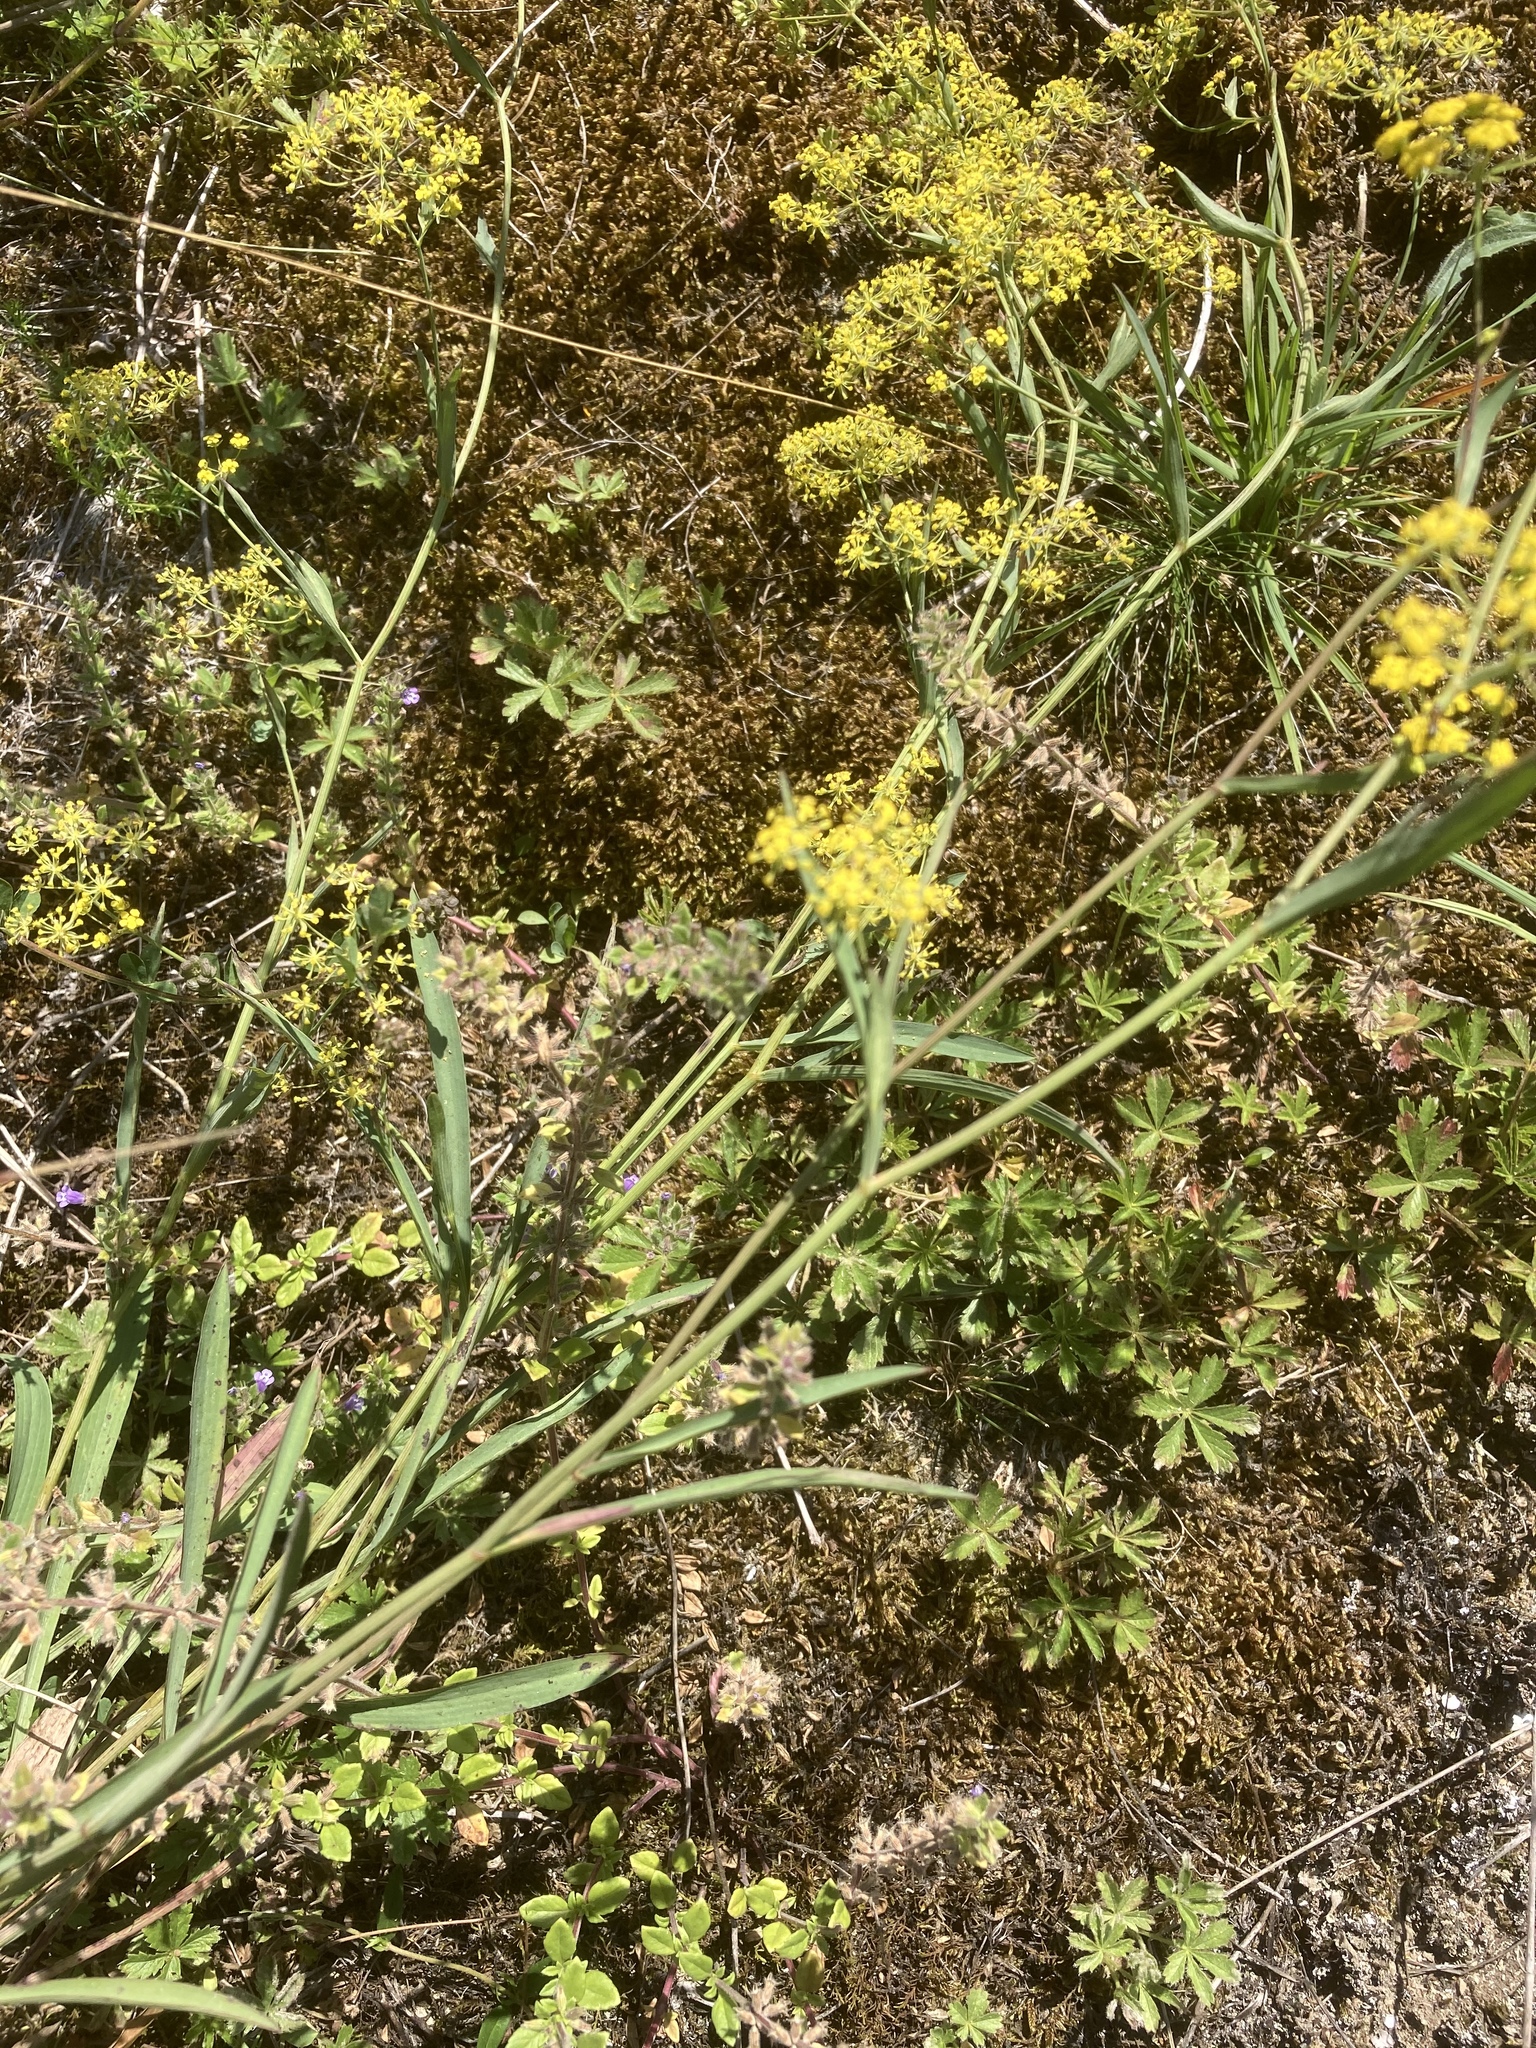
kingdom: Plantae
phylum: Tracheophyta
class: Magnoliopsida
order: Apiales
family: Apiaceae
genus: Bupleurum
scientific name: Bupleurum falcatum
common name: Sickle-leaved hare's-ear
